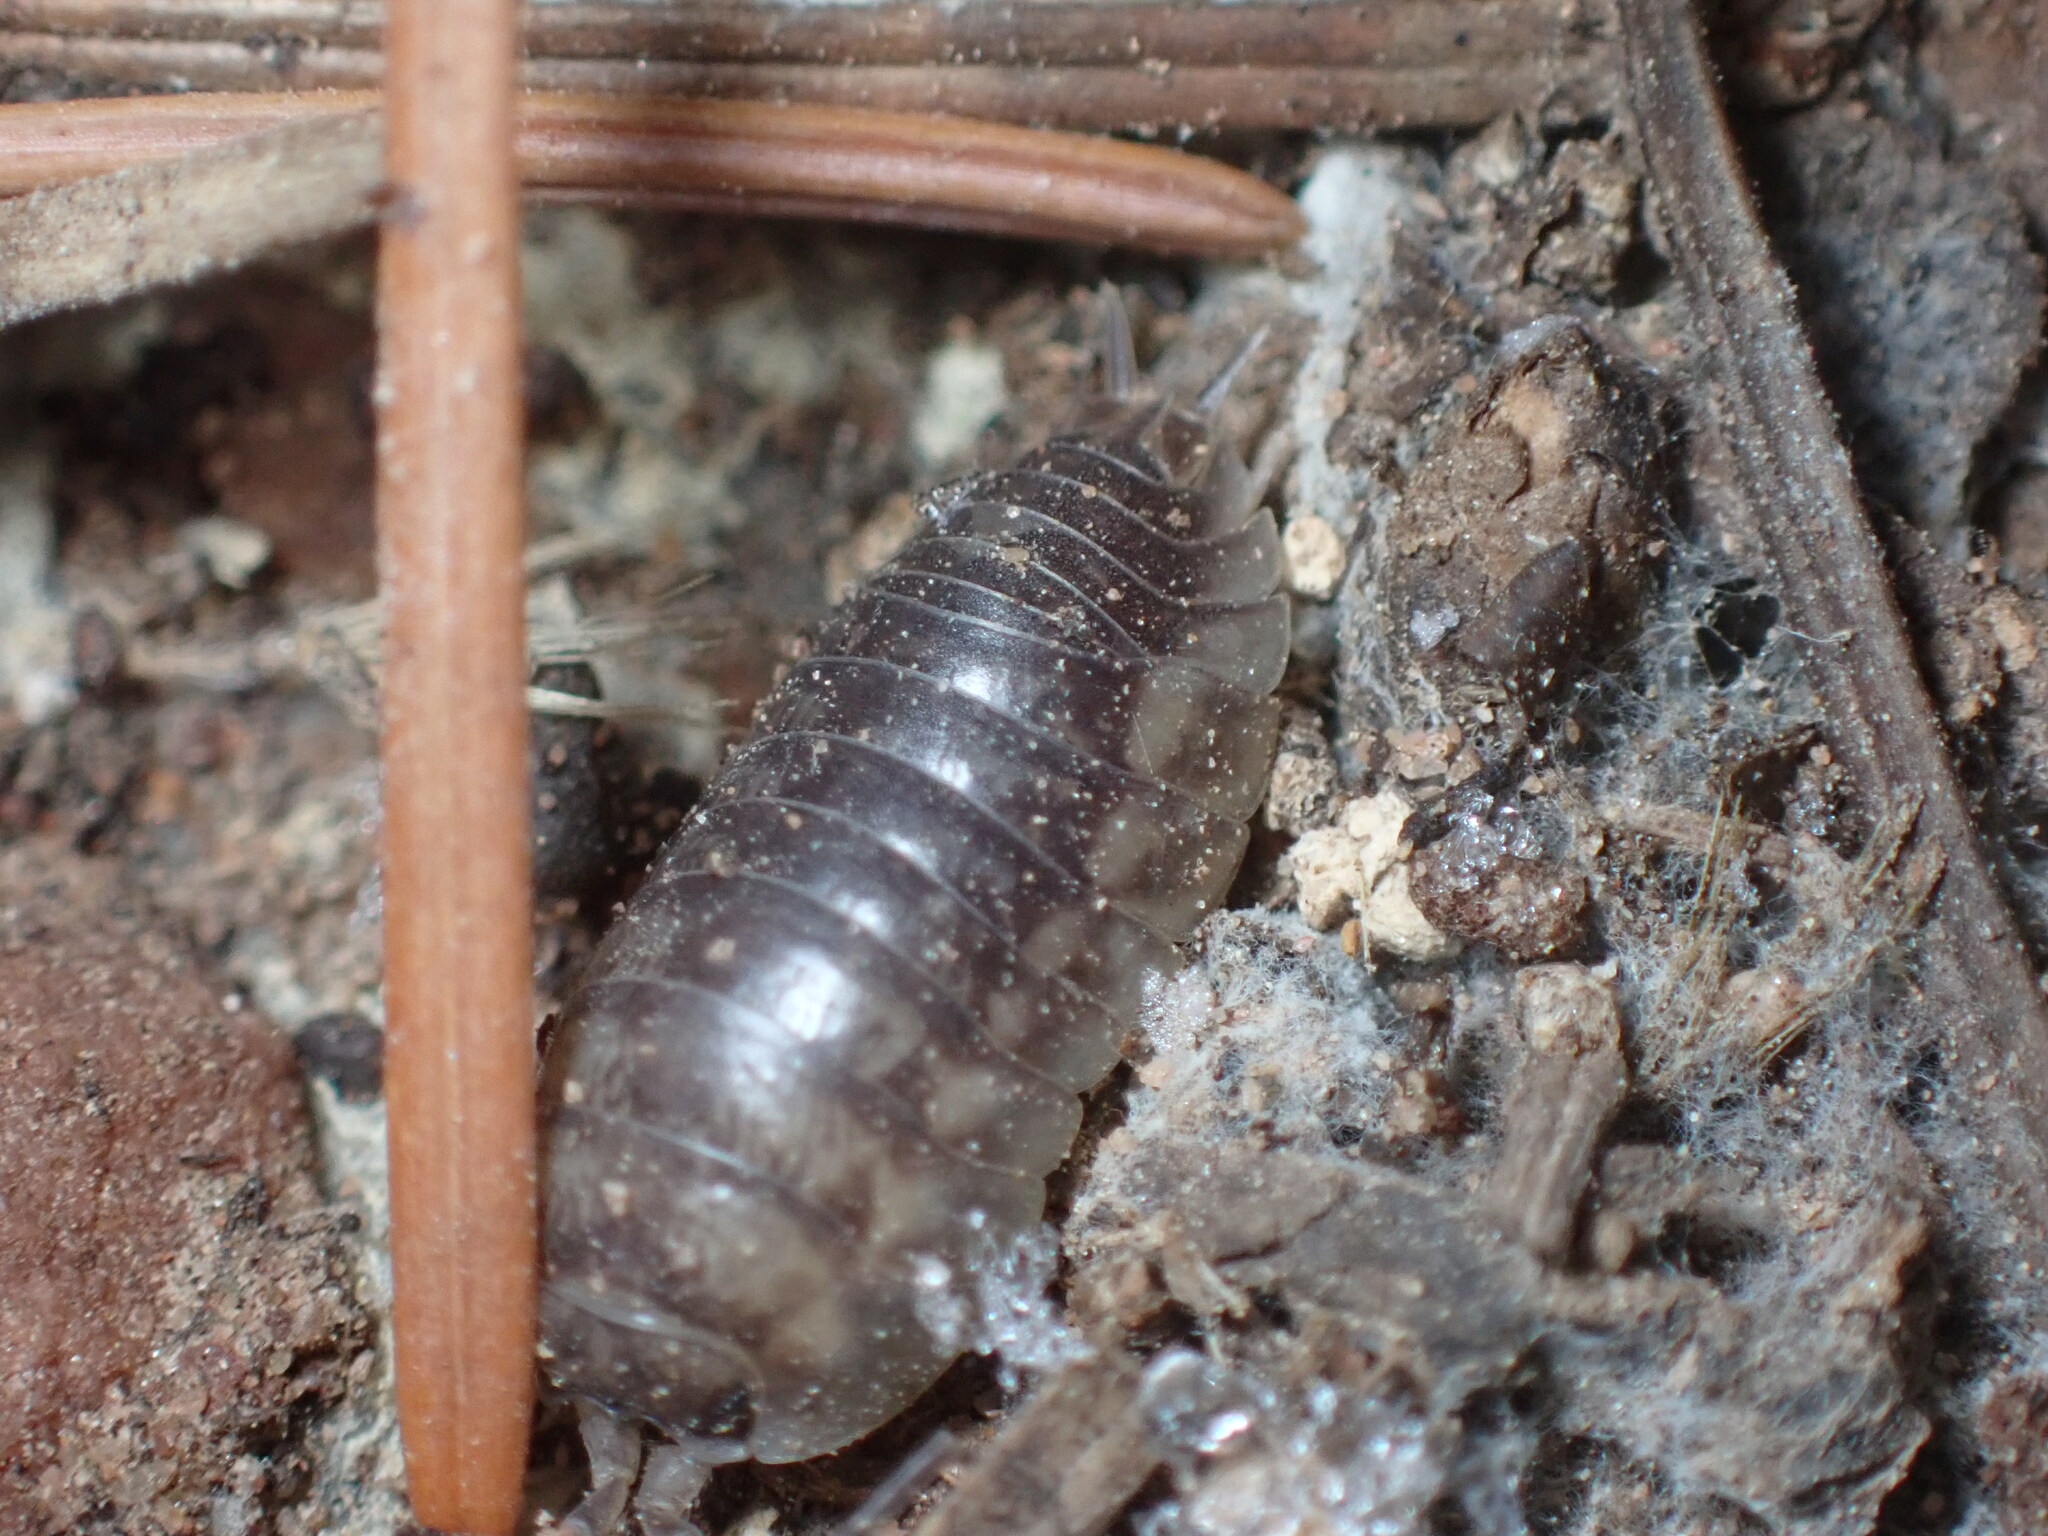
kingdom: Animalia
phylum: Arthropoda
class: Malacostraca
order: Isopoda
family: Cylisticidae
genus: Cylisticus
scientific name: Cylisticus convexus
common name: Curly woodlouse
